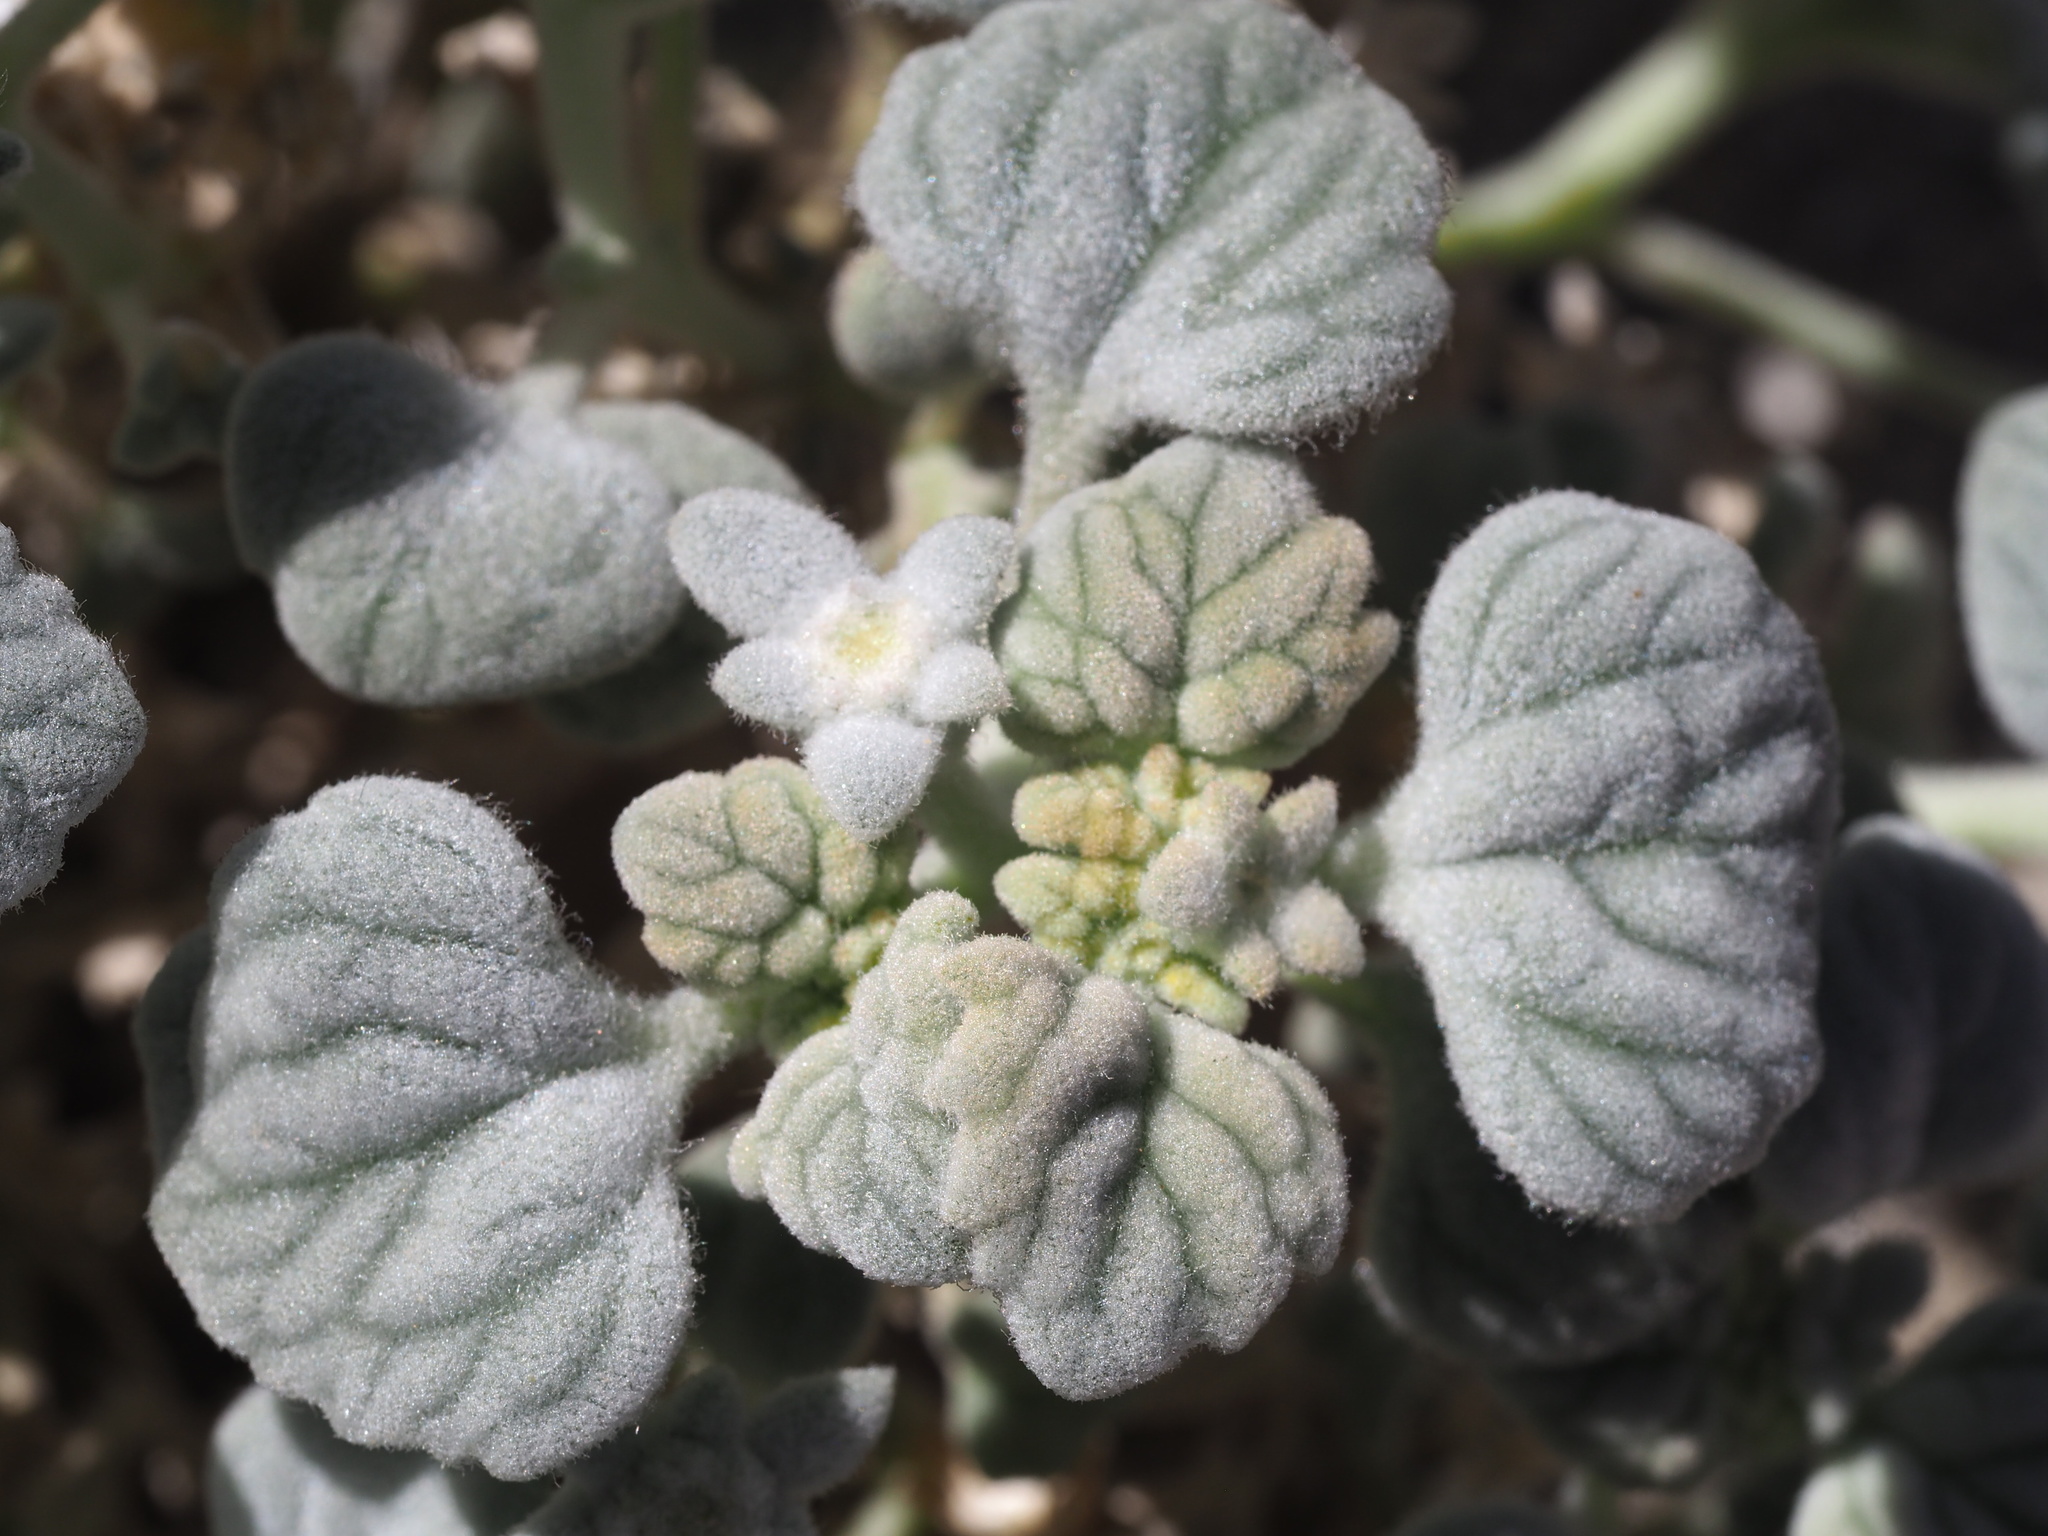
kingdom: Plantae
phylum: Tracheophyta
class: Magnoliopsida
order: Asterales
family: Asteraceae
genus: Psathyrotes
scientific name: Psathyrotes ramosissima
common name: Turtleback
